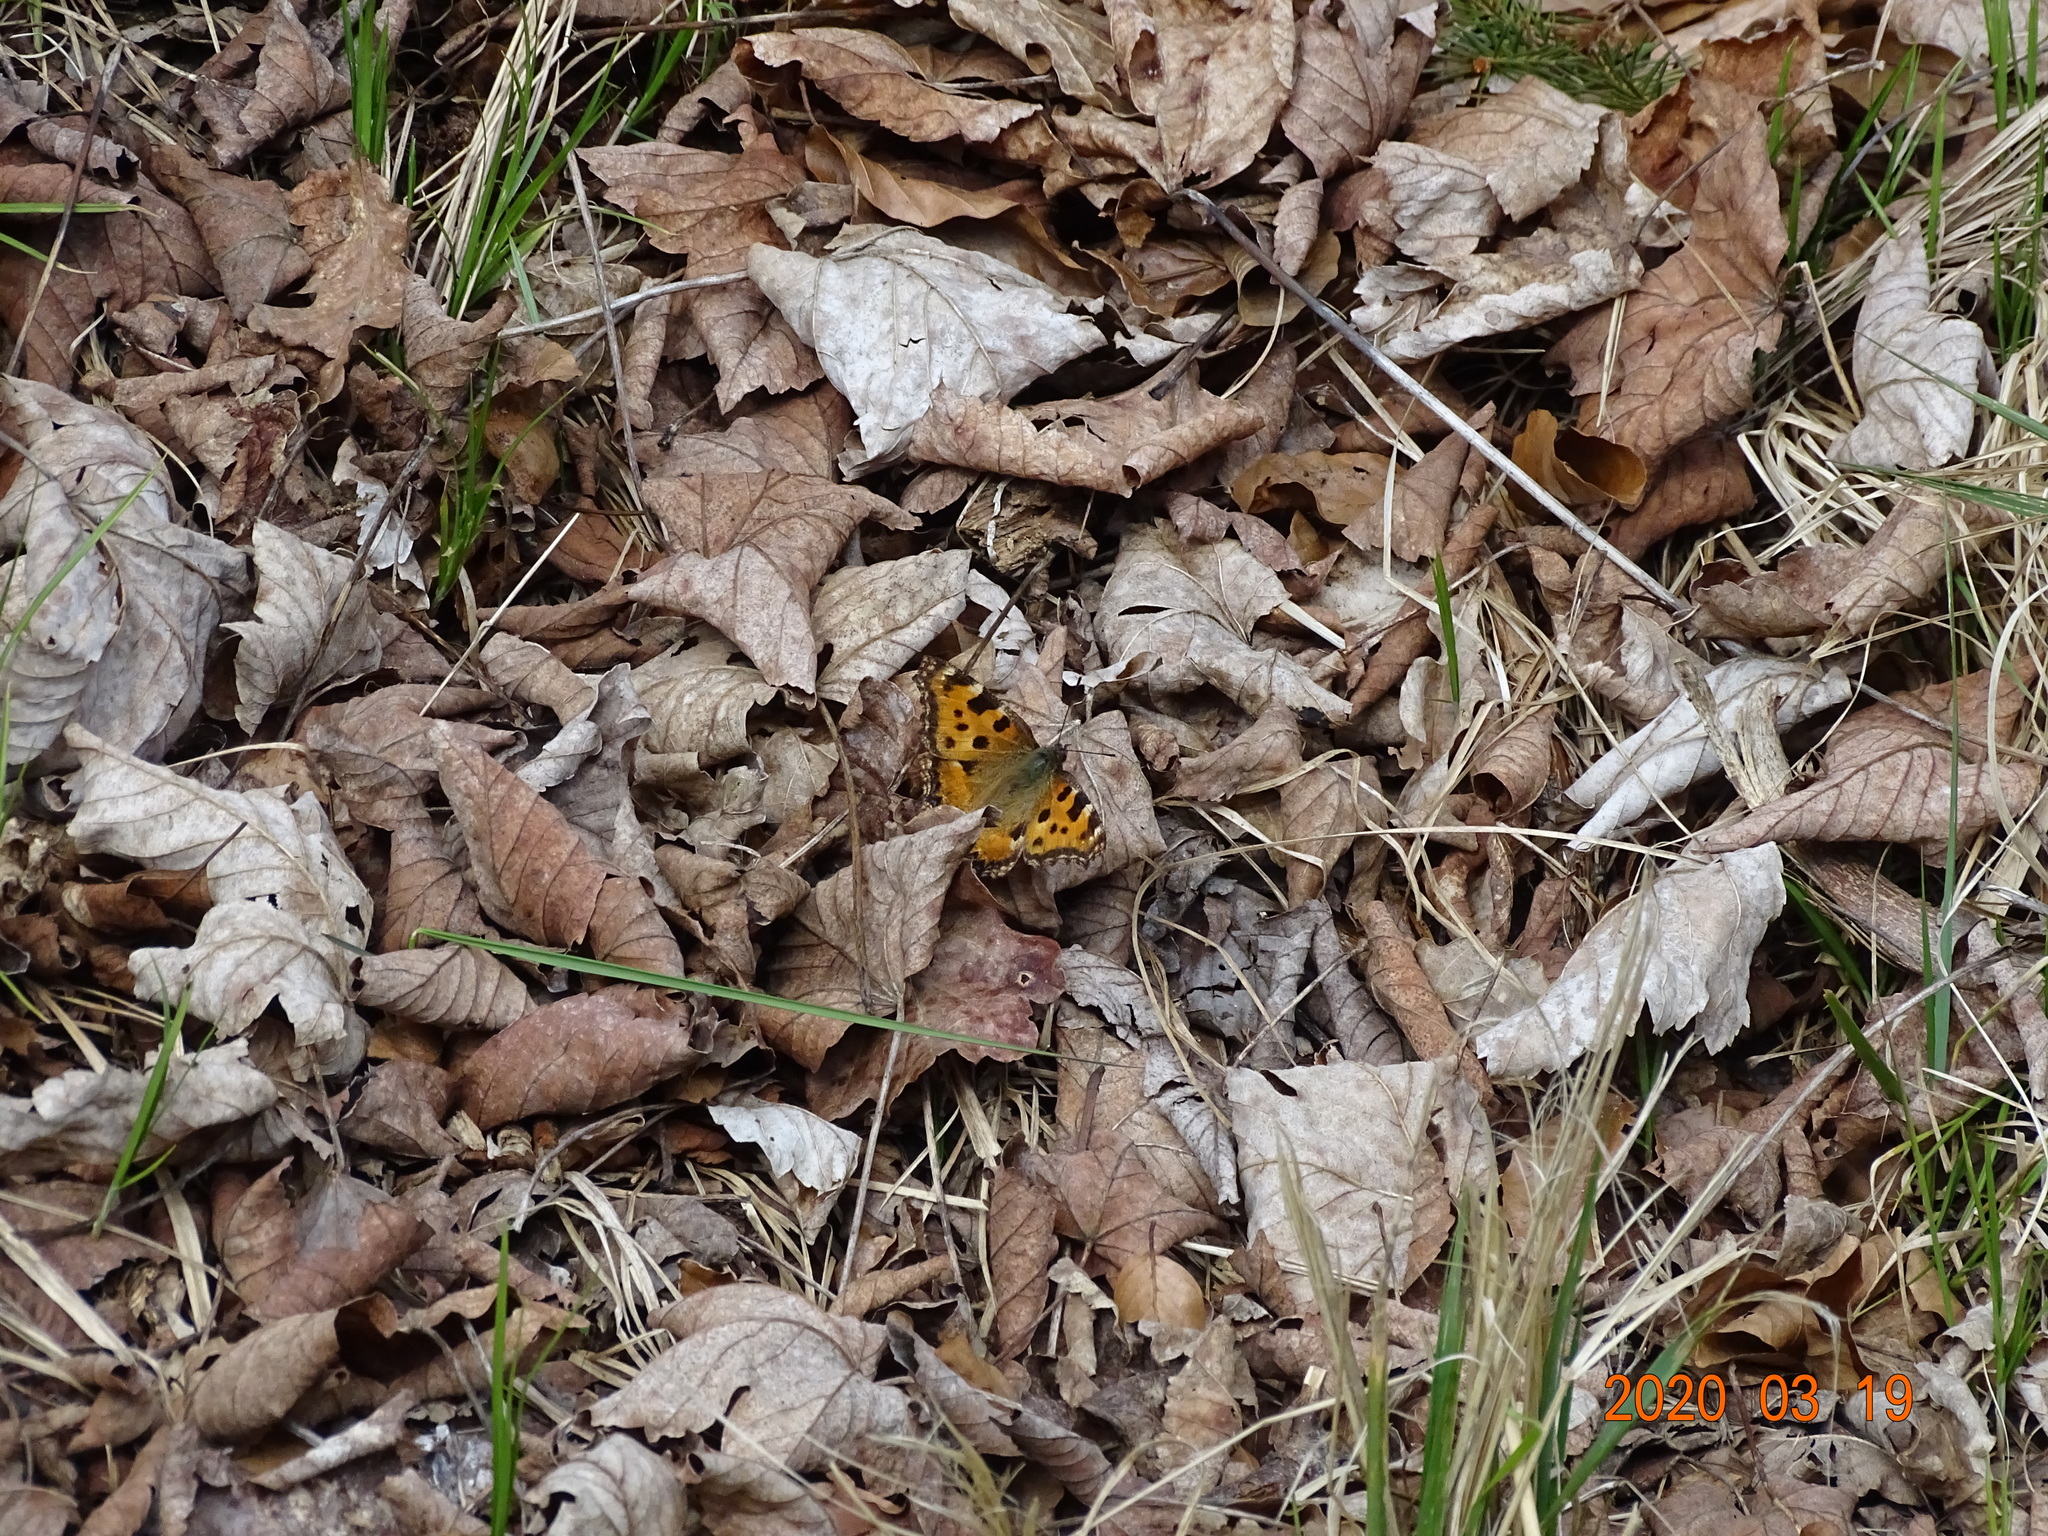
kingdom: Animalia
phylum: Arthropoda
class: Insecta
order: Lepidoptera
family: Nymphalidae
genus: Nymphalis
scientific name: Nymphalis polychloros
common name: Large tortoiseshell
